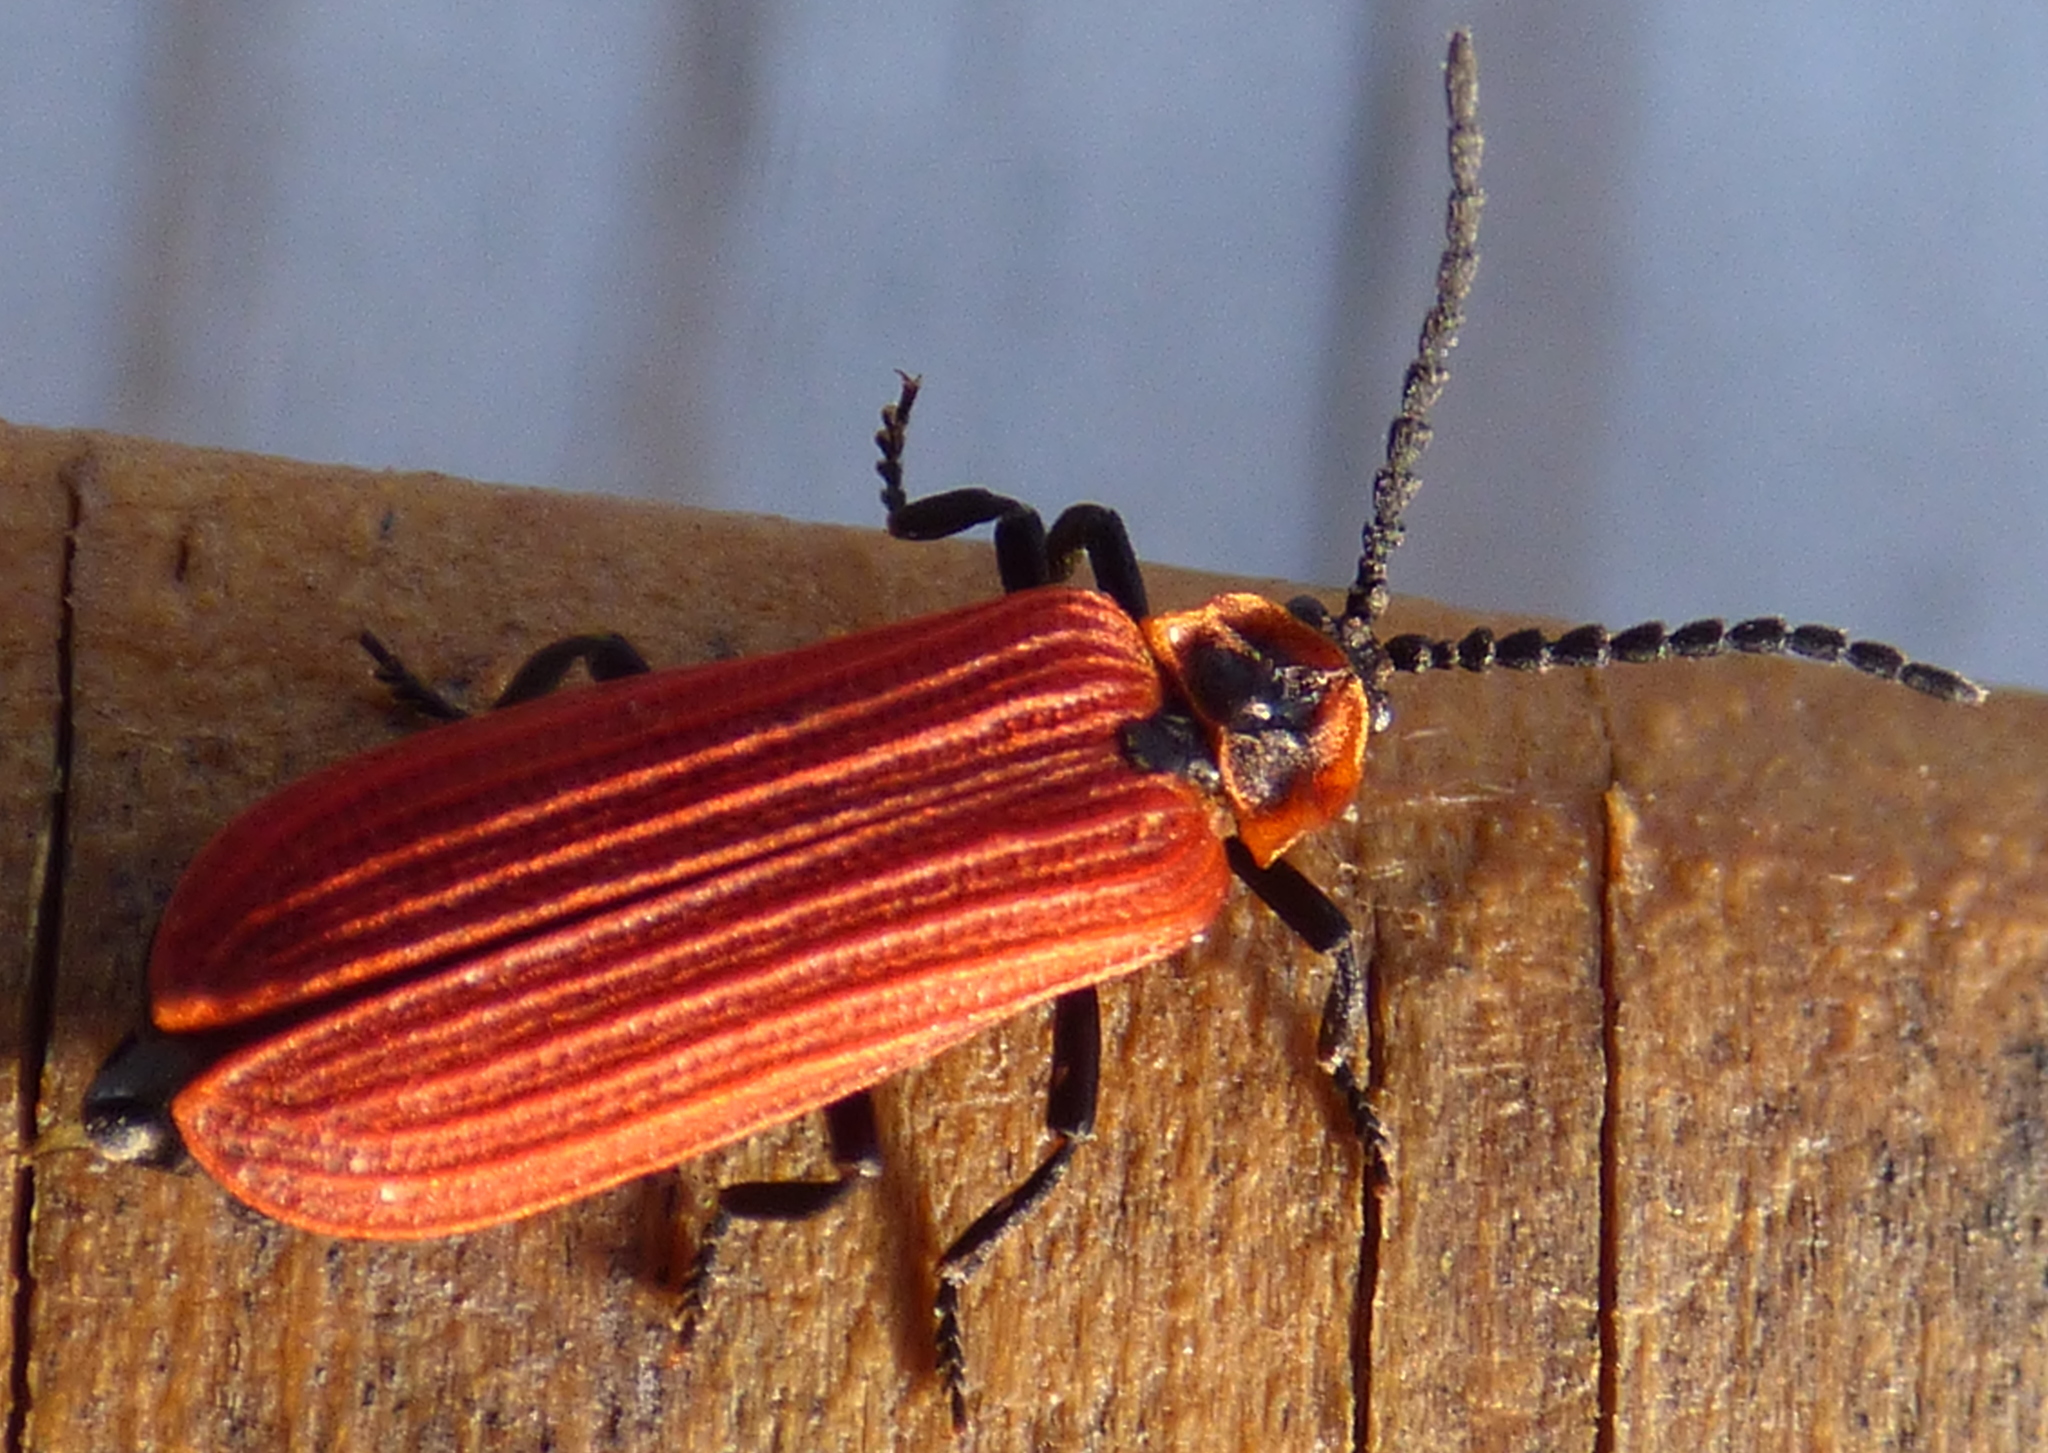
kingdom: Animalia
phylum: Arthropoda
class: Insecta
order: Coleoptera
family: Lycidae
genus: Dictyoptera
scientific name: Dictyoptera aurora
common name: Golden net-winged beetle
